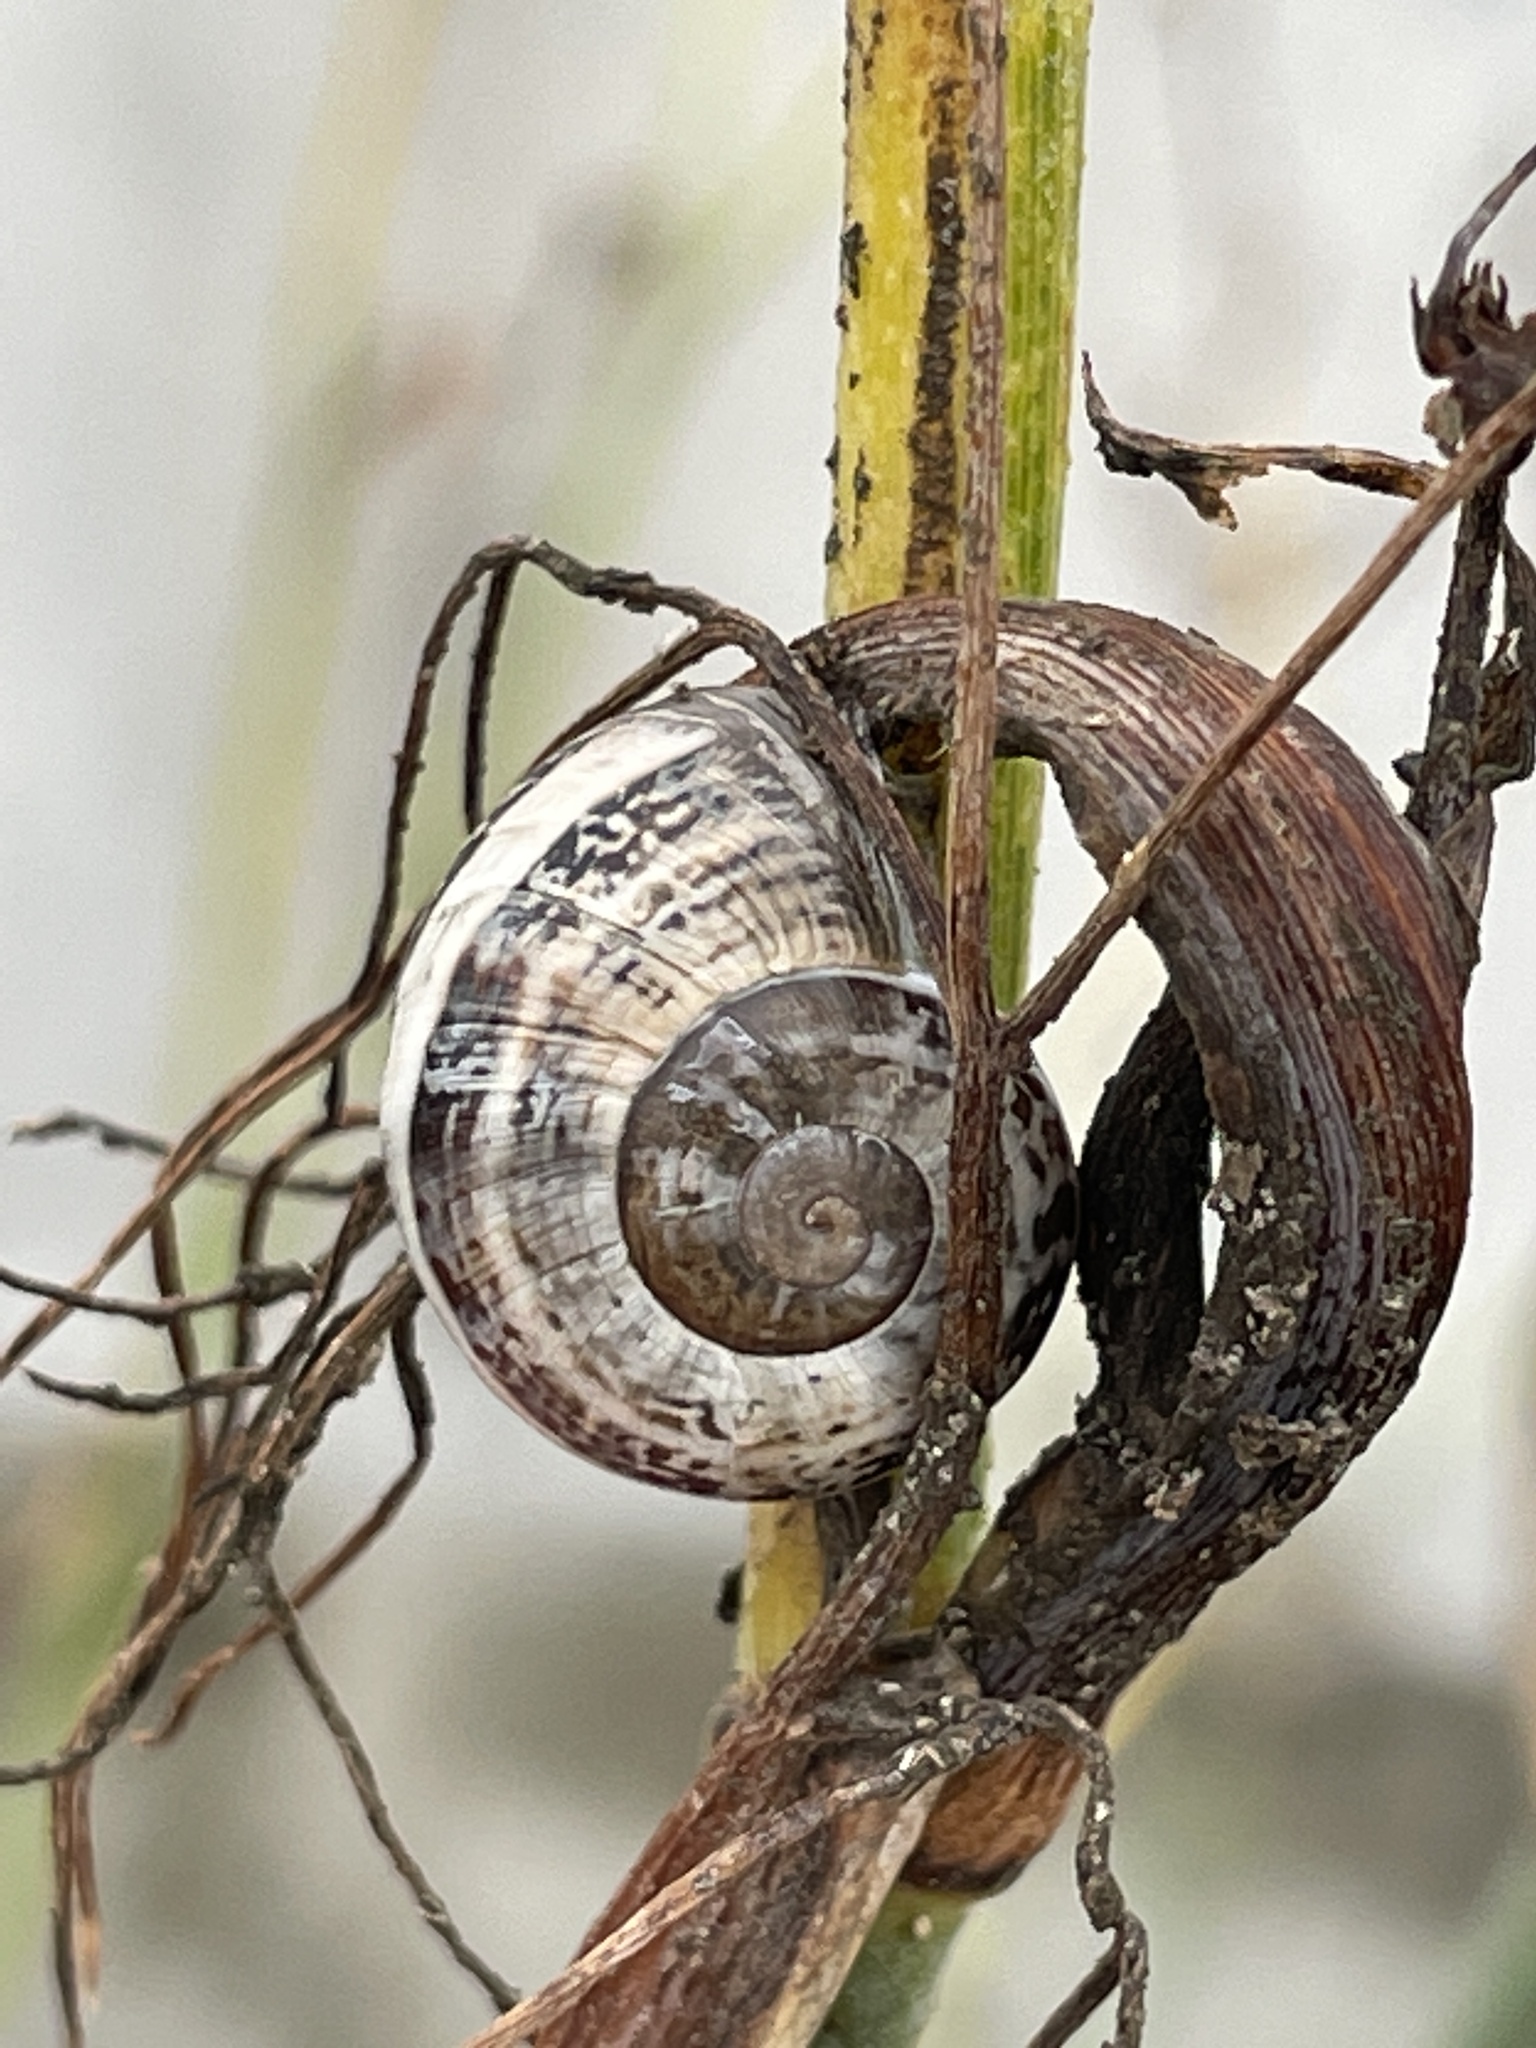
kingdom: Animalia
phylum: Mollusca
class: Gastropoda
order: Stylommatophora
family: Helicidae
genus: Otala
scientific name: Otala lactea
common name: Milk snail
